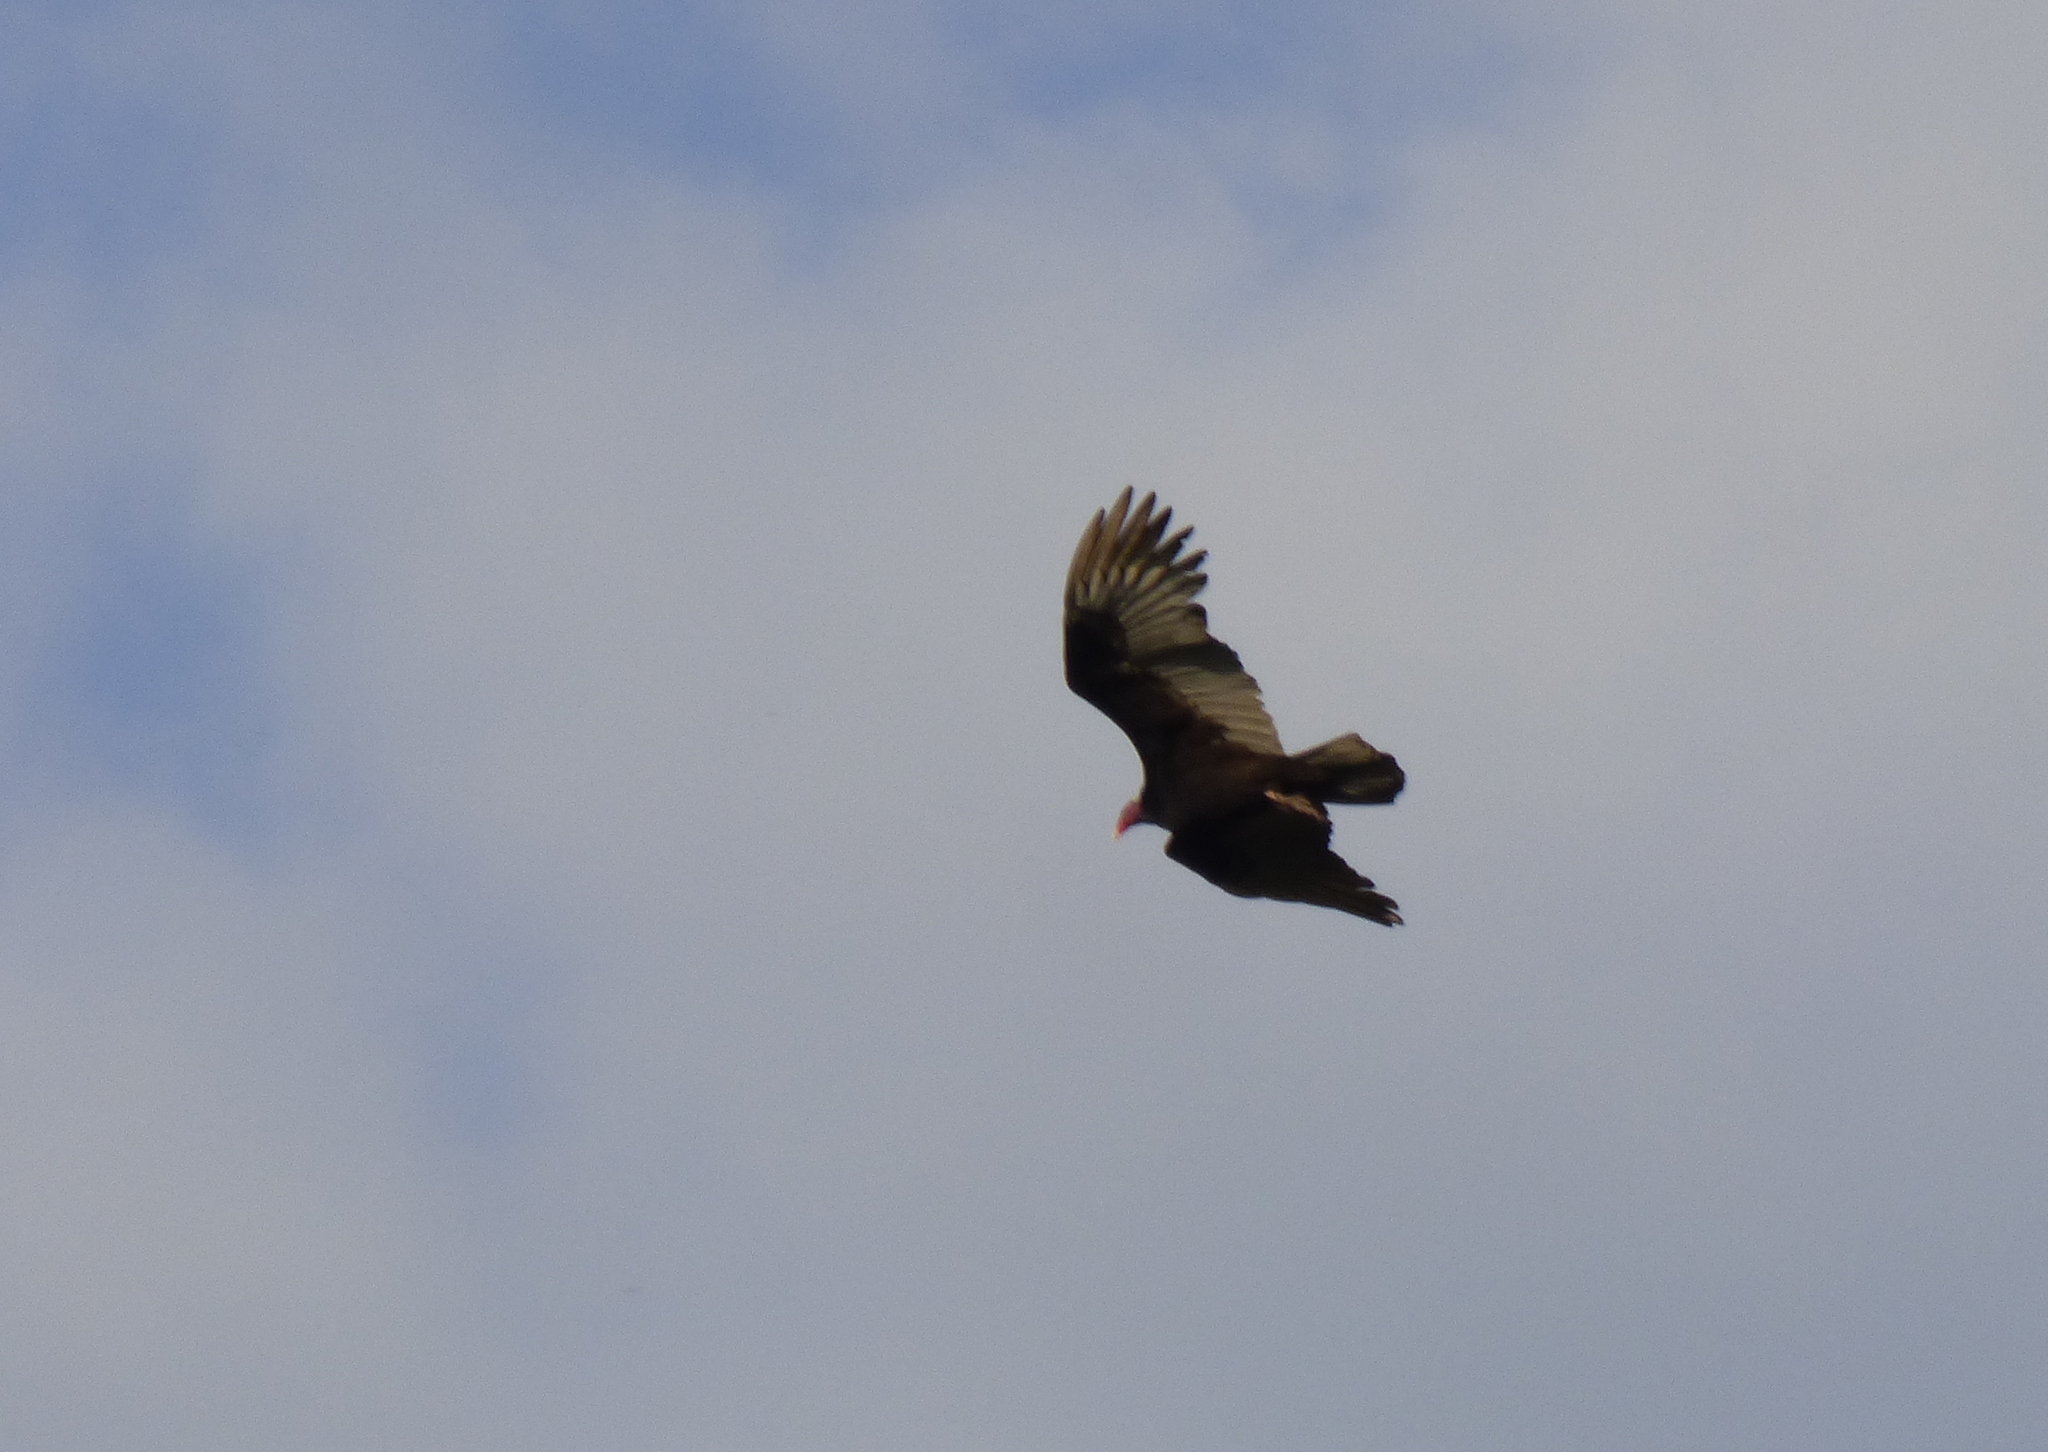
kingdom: Animalia
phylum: Chordata
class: Aves
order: Accipitriformes
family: Cathartidae
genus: Cathartes
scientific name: Cathartes aura
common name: Turkey vulture
